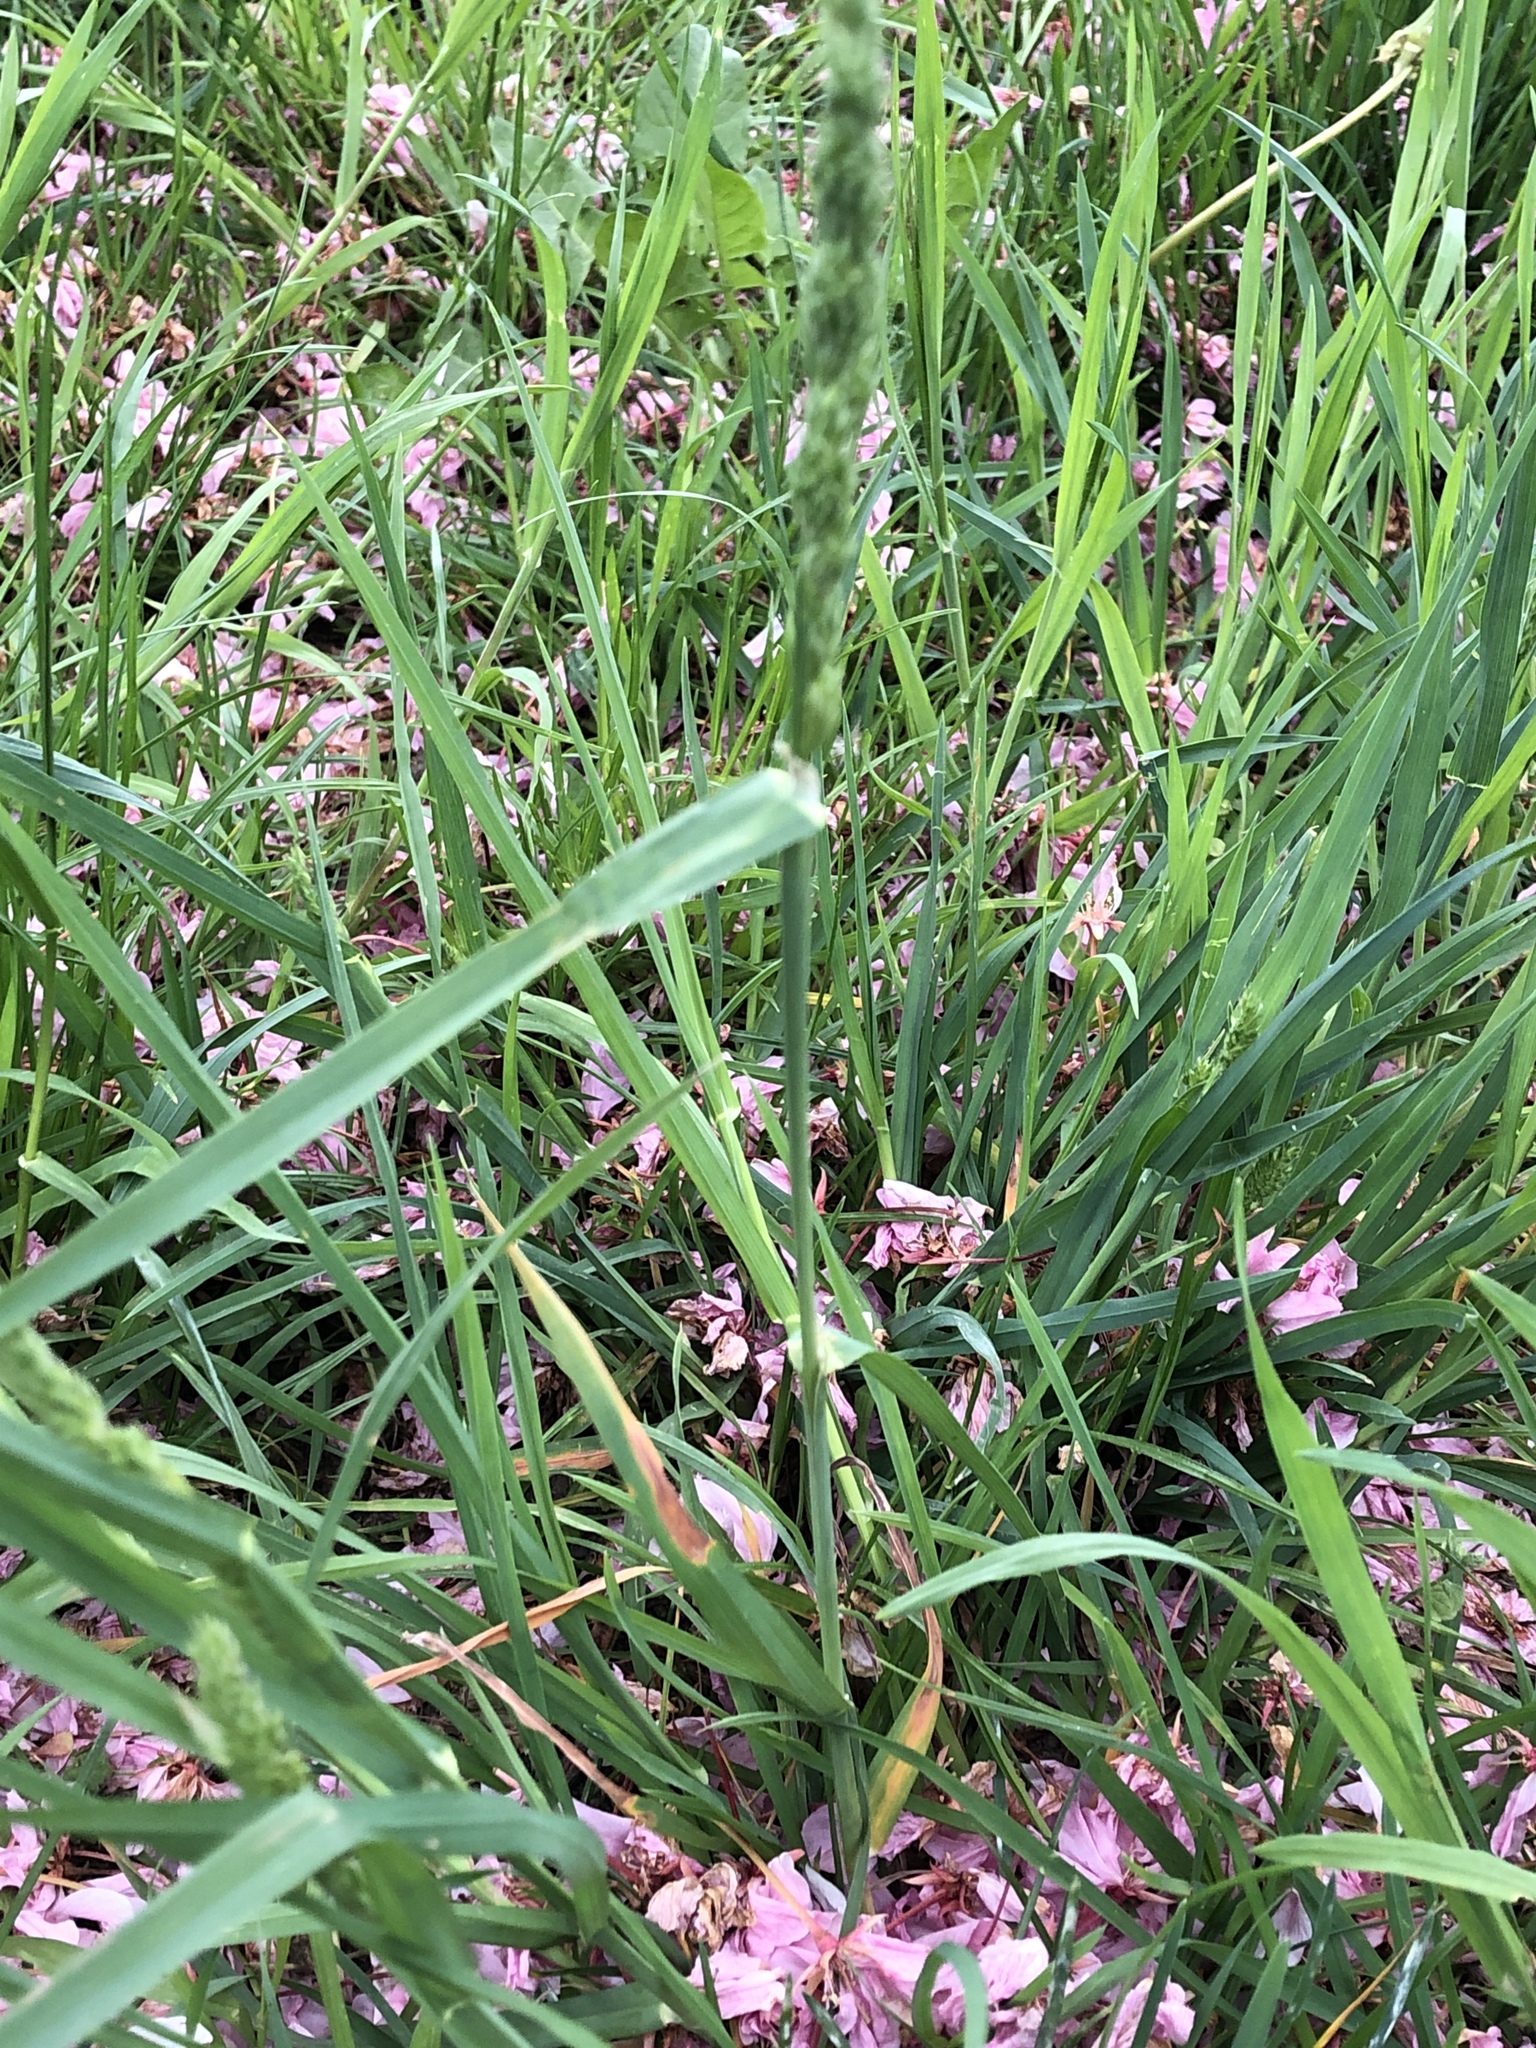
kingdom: Plantae
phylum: Tracheophyta
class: Liliopsida
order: Poales
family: Poaceae
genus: Dactylis
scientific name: Dactylis glomerata
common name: Orchardgrass
